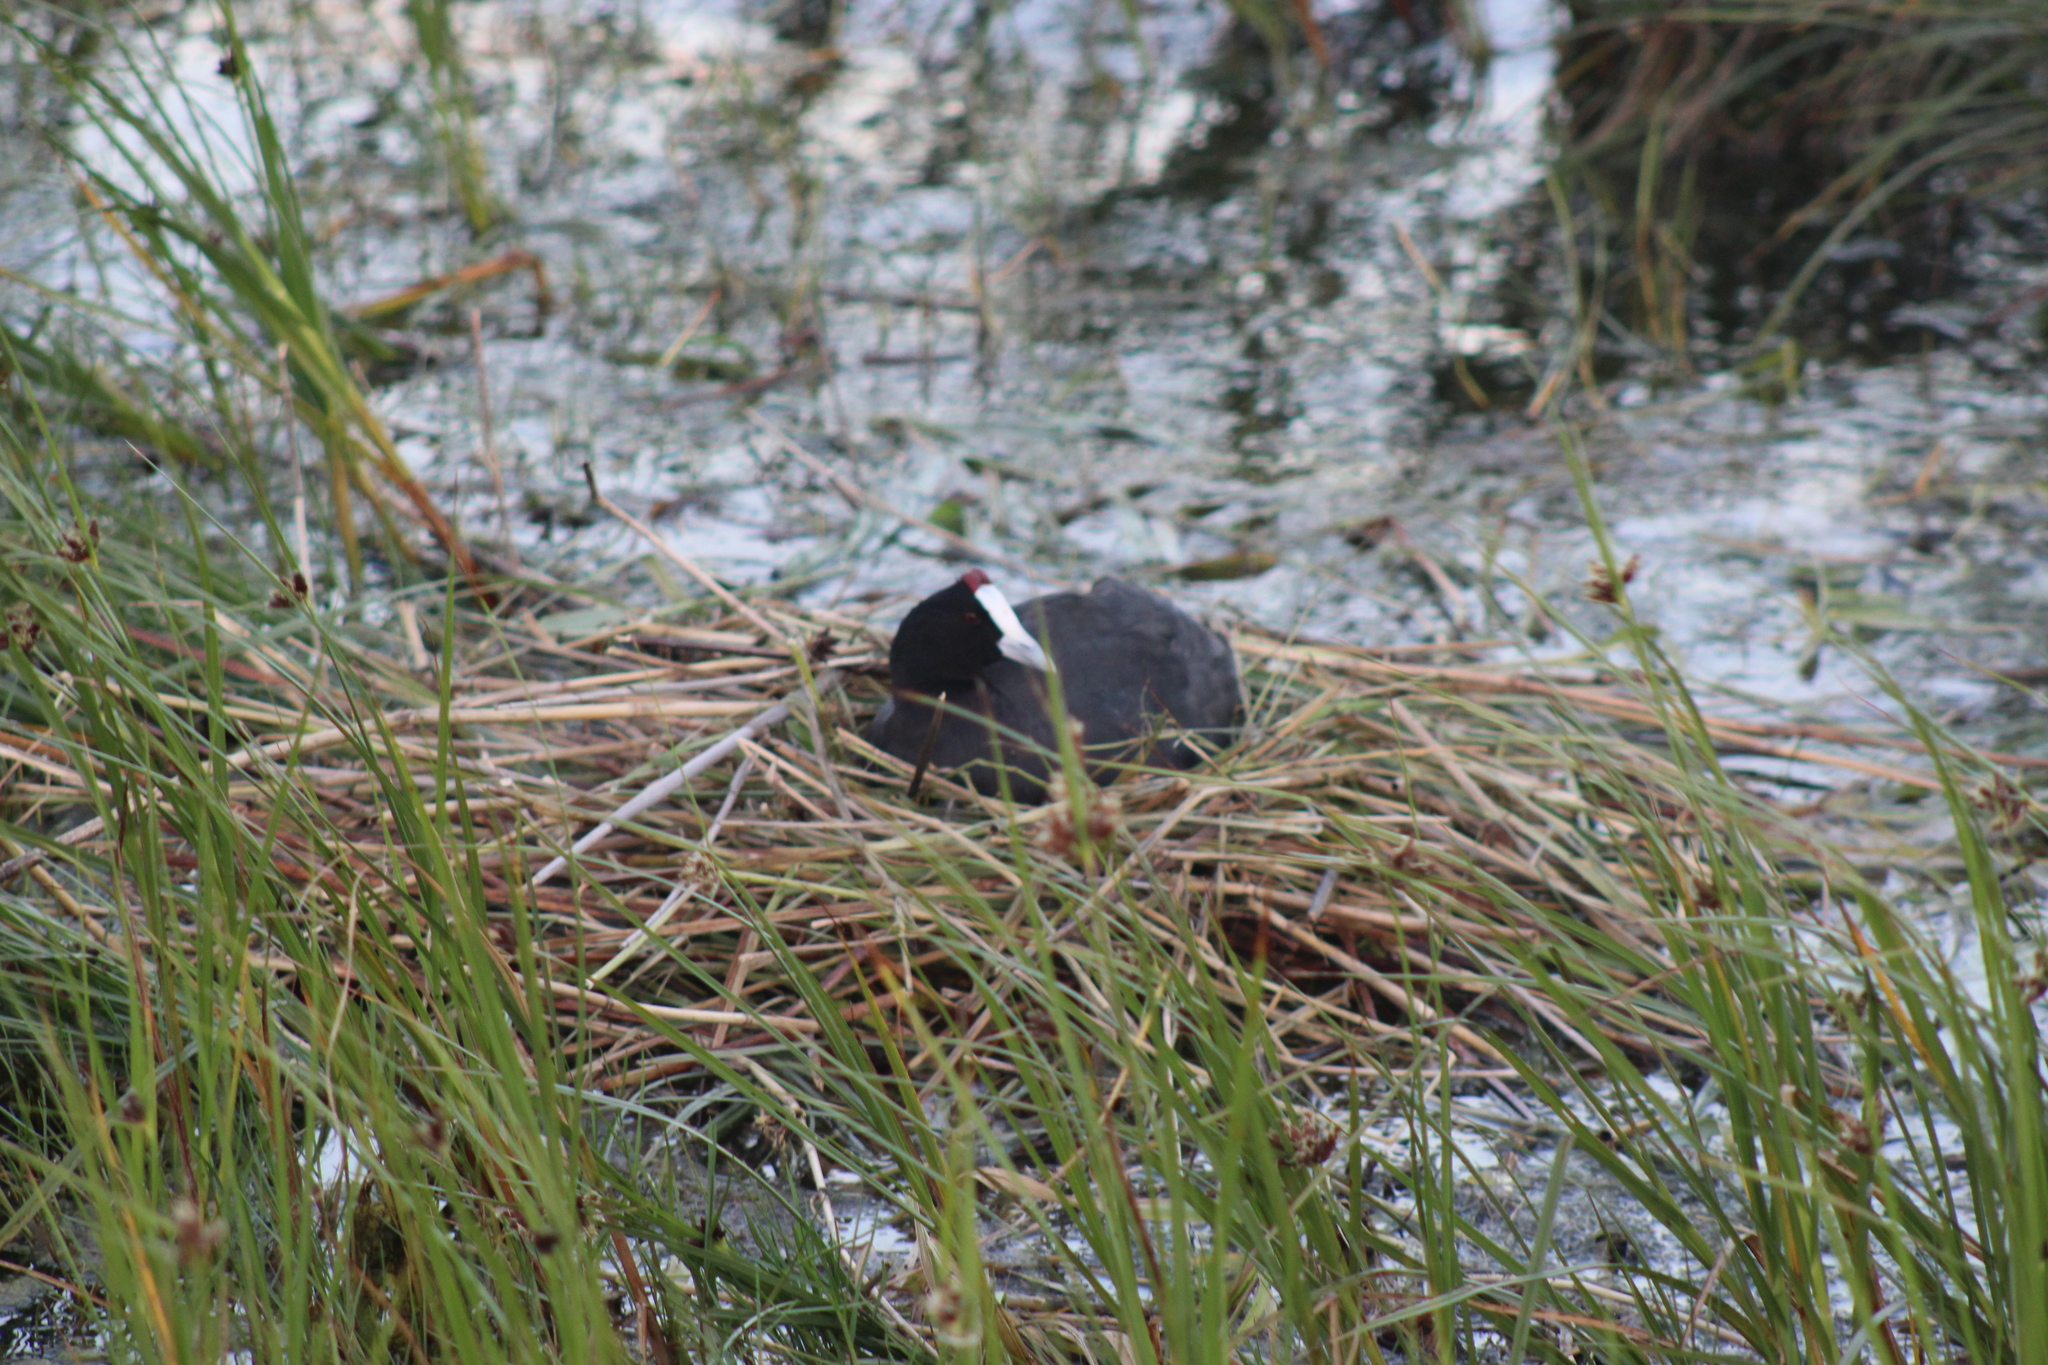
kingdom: Animalia
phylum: Chordata
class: Aves
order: Gruiformes
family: Rallidae
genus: Fulica
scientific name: Fulica cristata
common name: Red-knobbed coot
